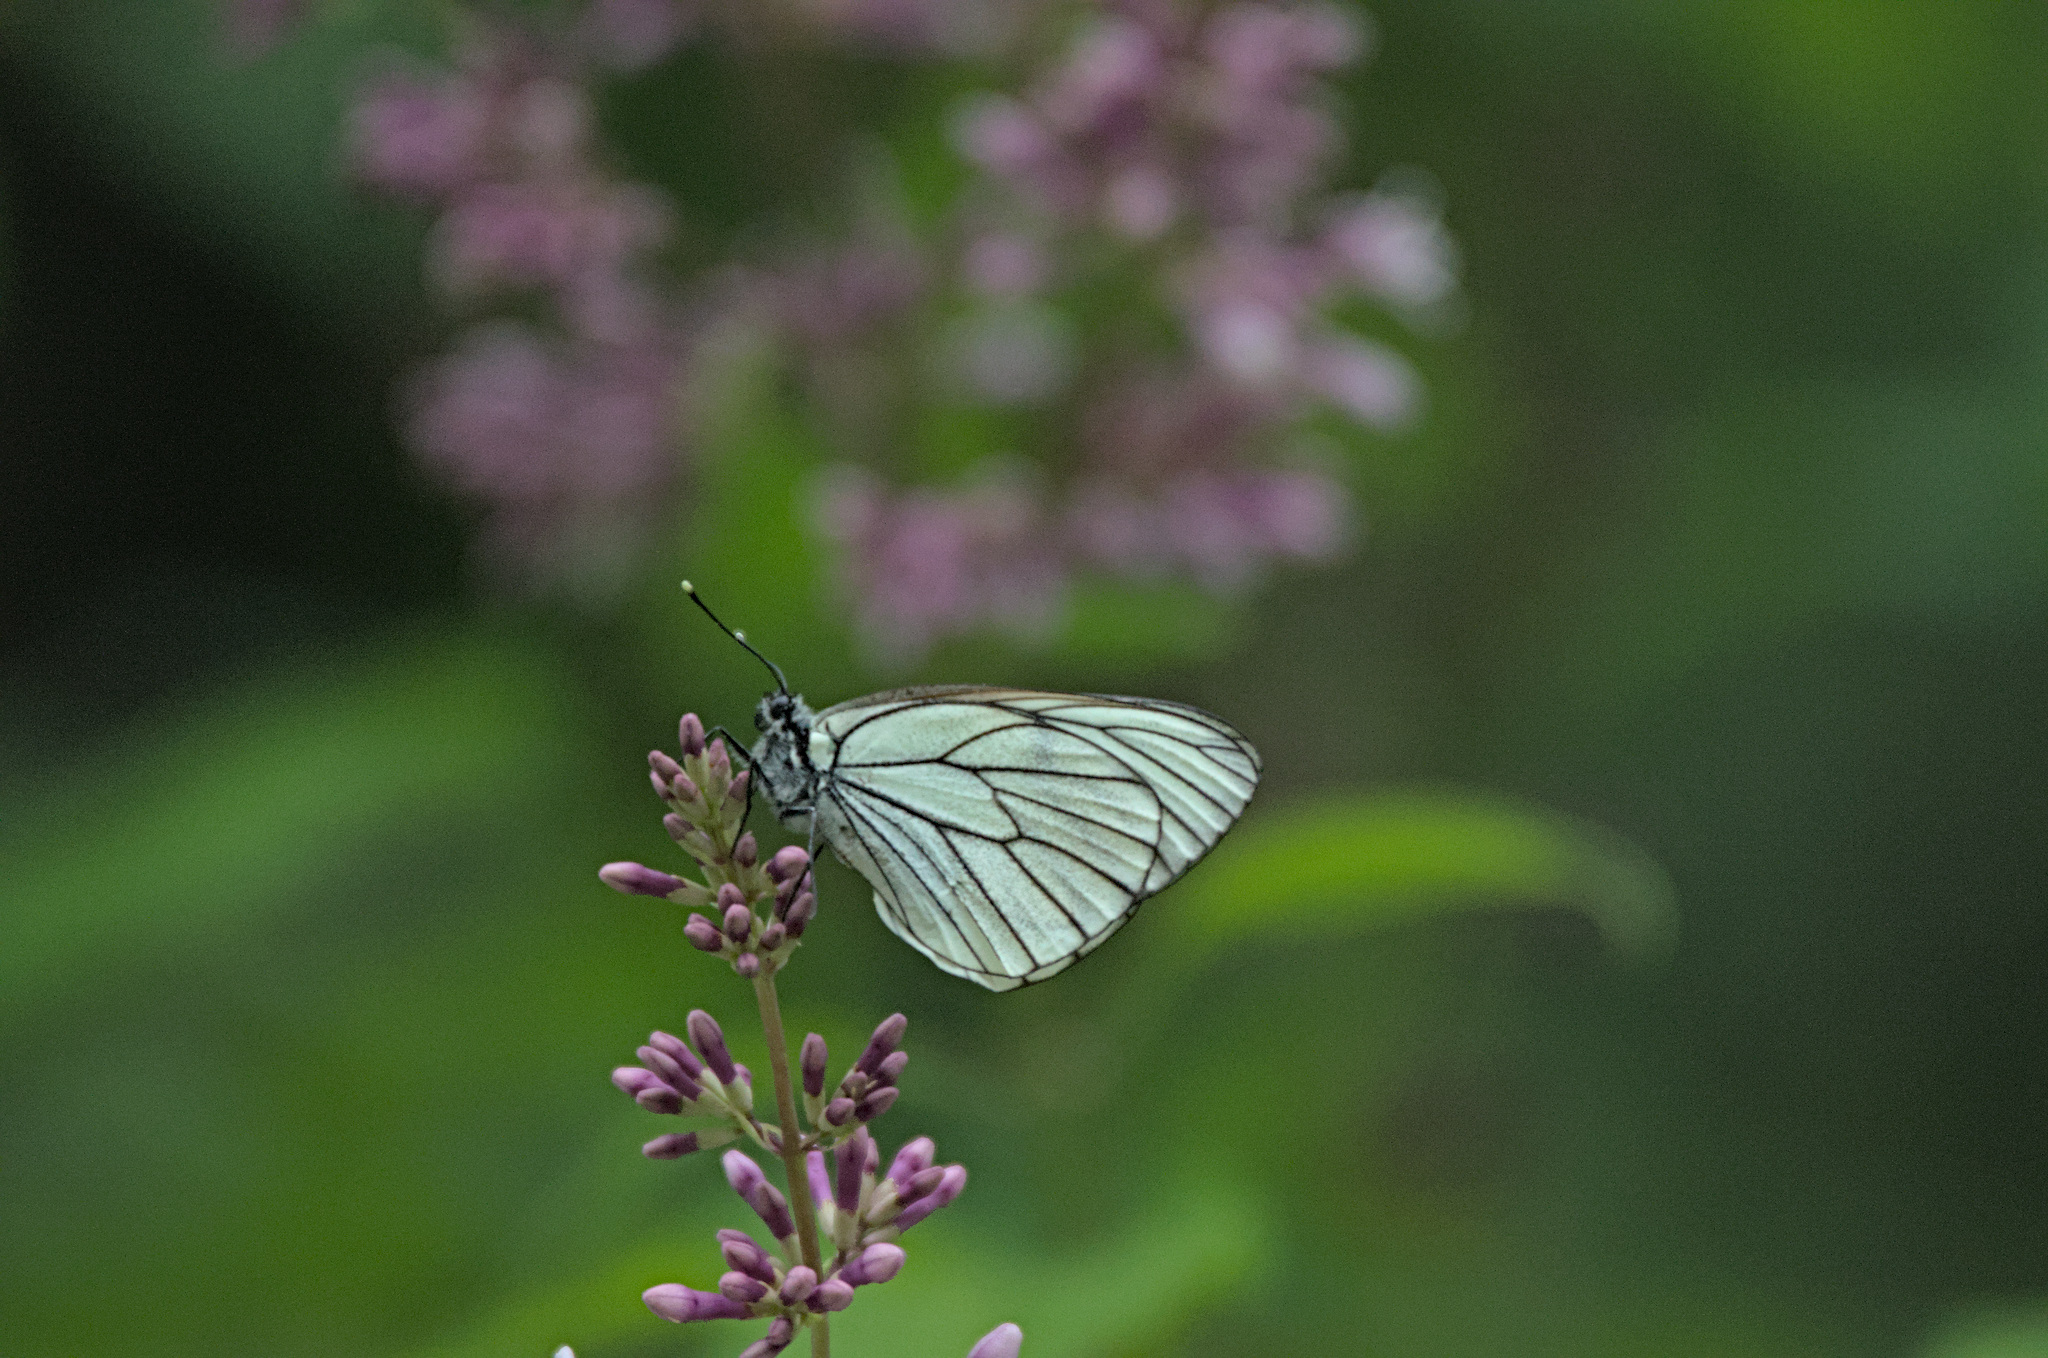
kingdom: Animalia
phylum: Arthropoda
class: Insecta
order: Lepidoptera
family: Pieridae
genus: Aporia
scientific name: Aporia crataegi
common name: Black-veined white
